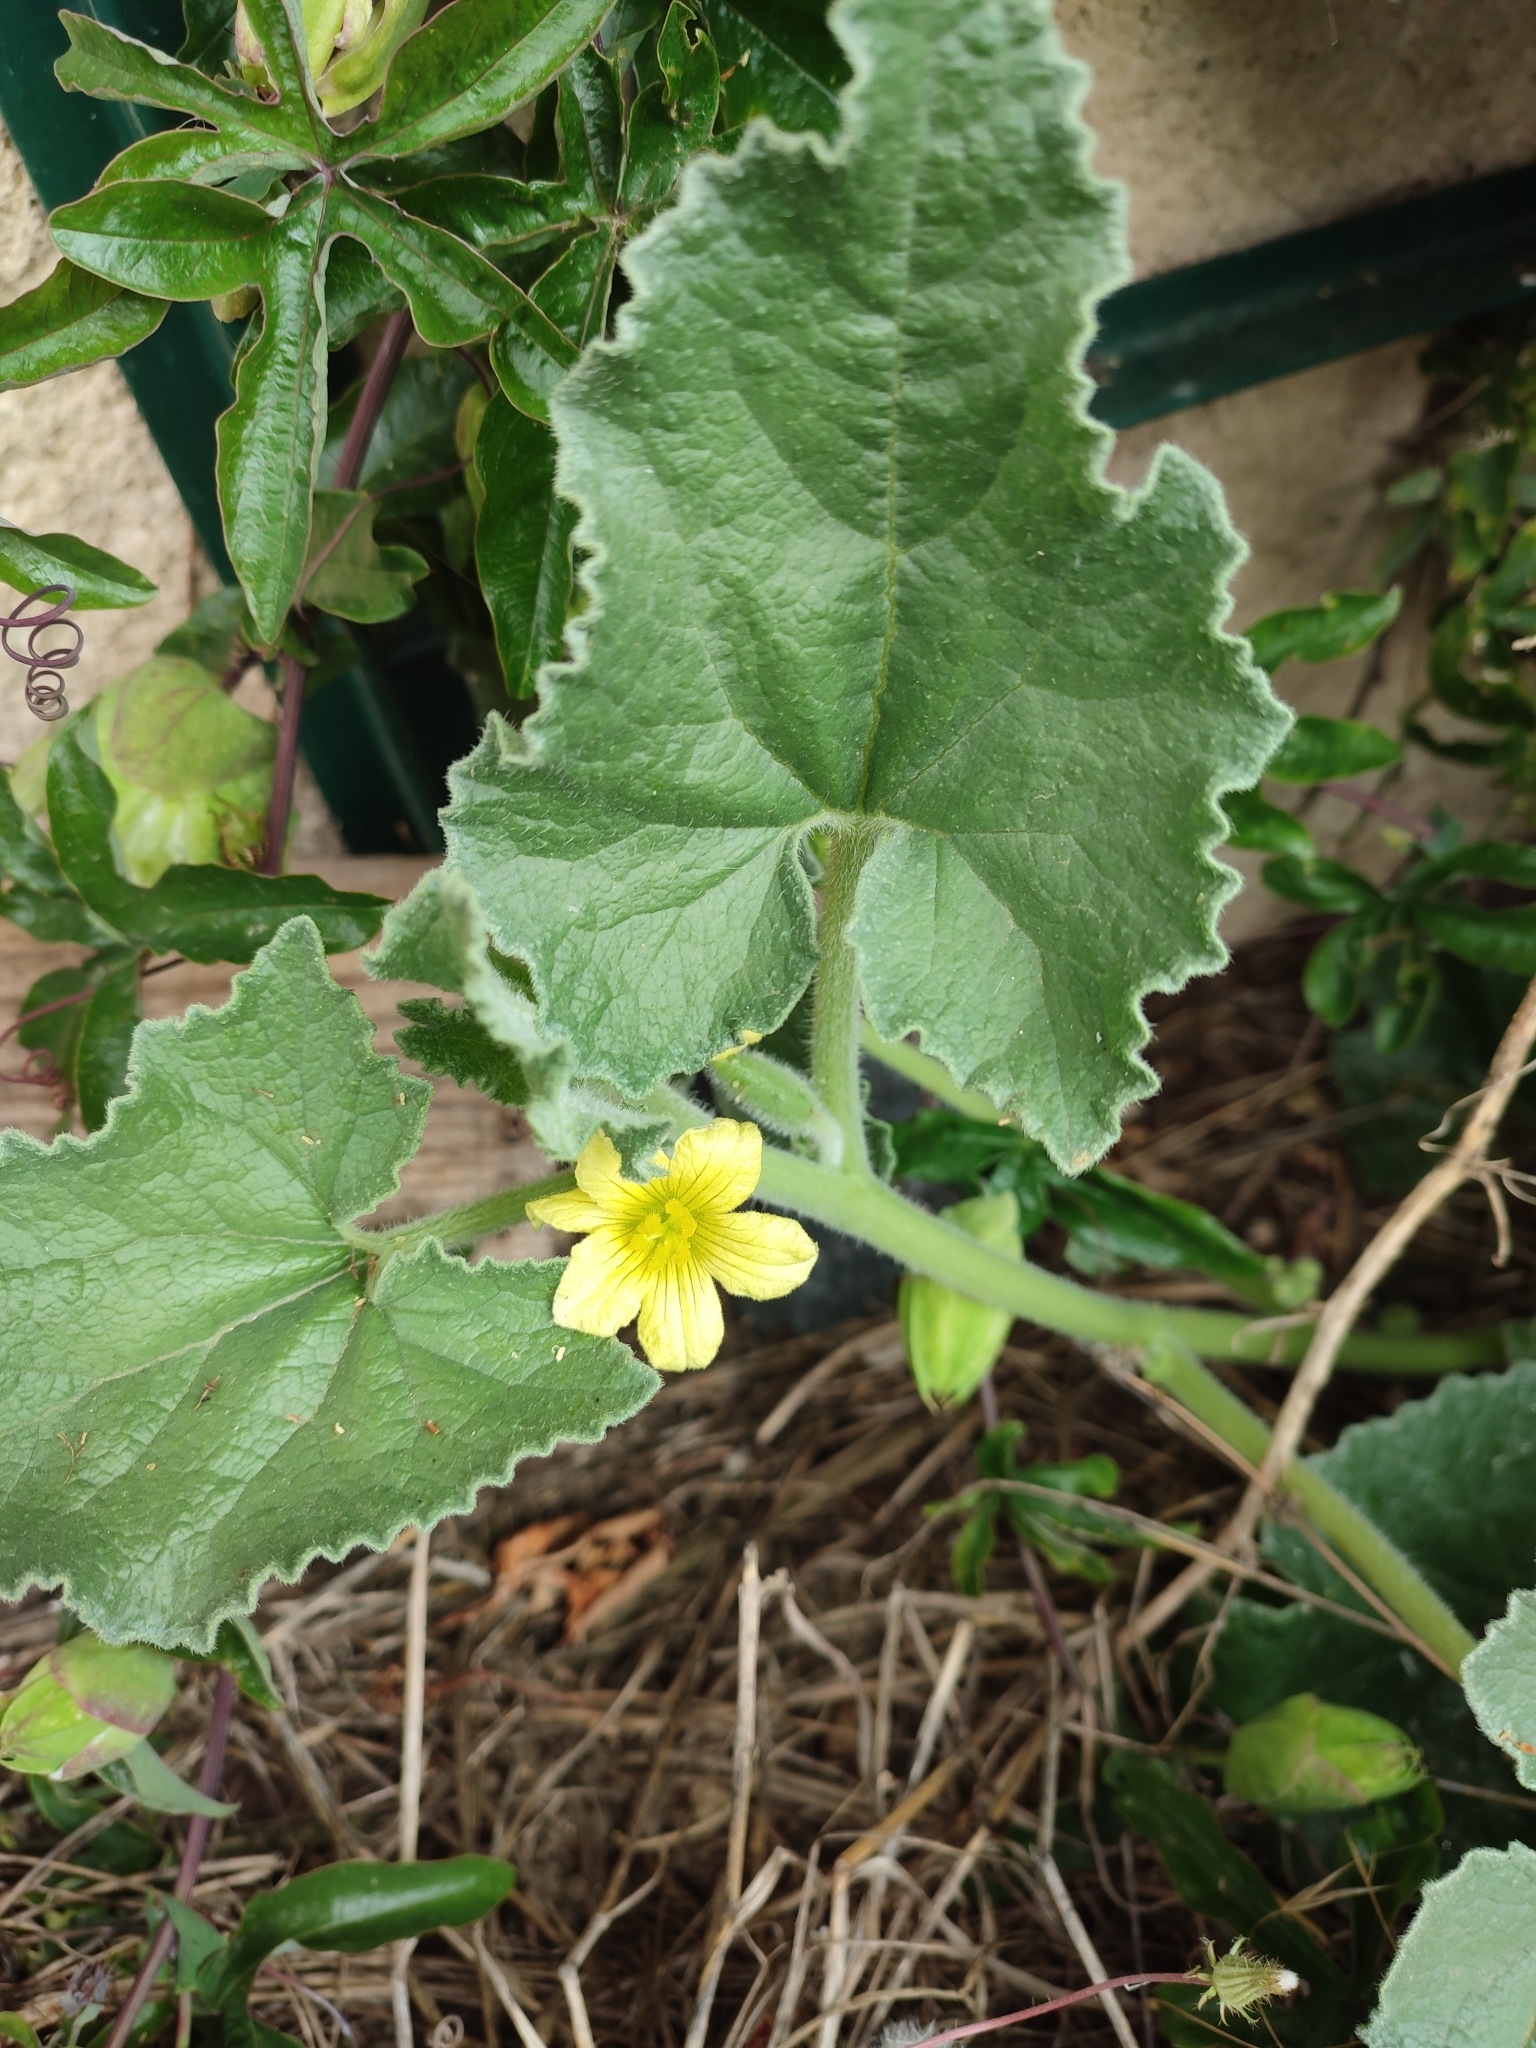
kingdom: Plantae
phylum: Tracheophyta
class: Magnoliopsida
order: Cucurbitales
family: Cucurbitaceae
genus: Ecballium
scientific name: Ecballium elaterium
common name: Squirting cucumber
